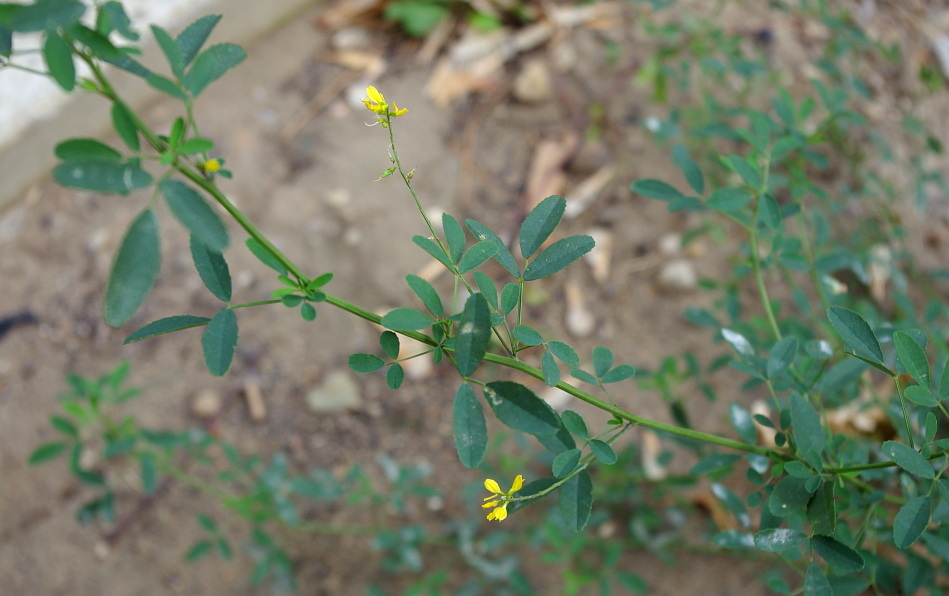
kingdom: Plantae
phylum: Tracheophyta
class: Magnoliopsida
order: Fabales
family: Fabaceae
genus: Melilotus
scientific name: Melilotus officinalis
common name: Sweetclover
